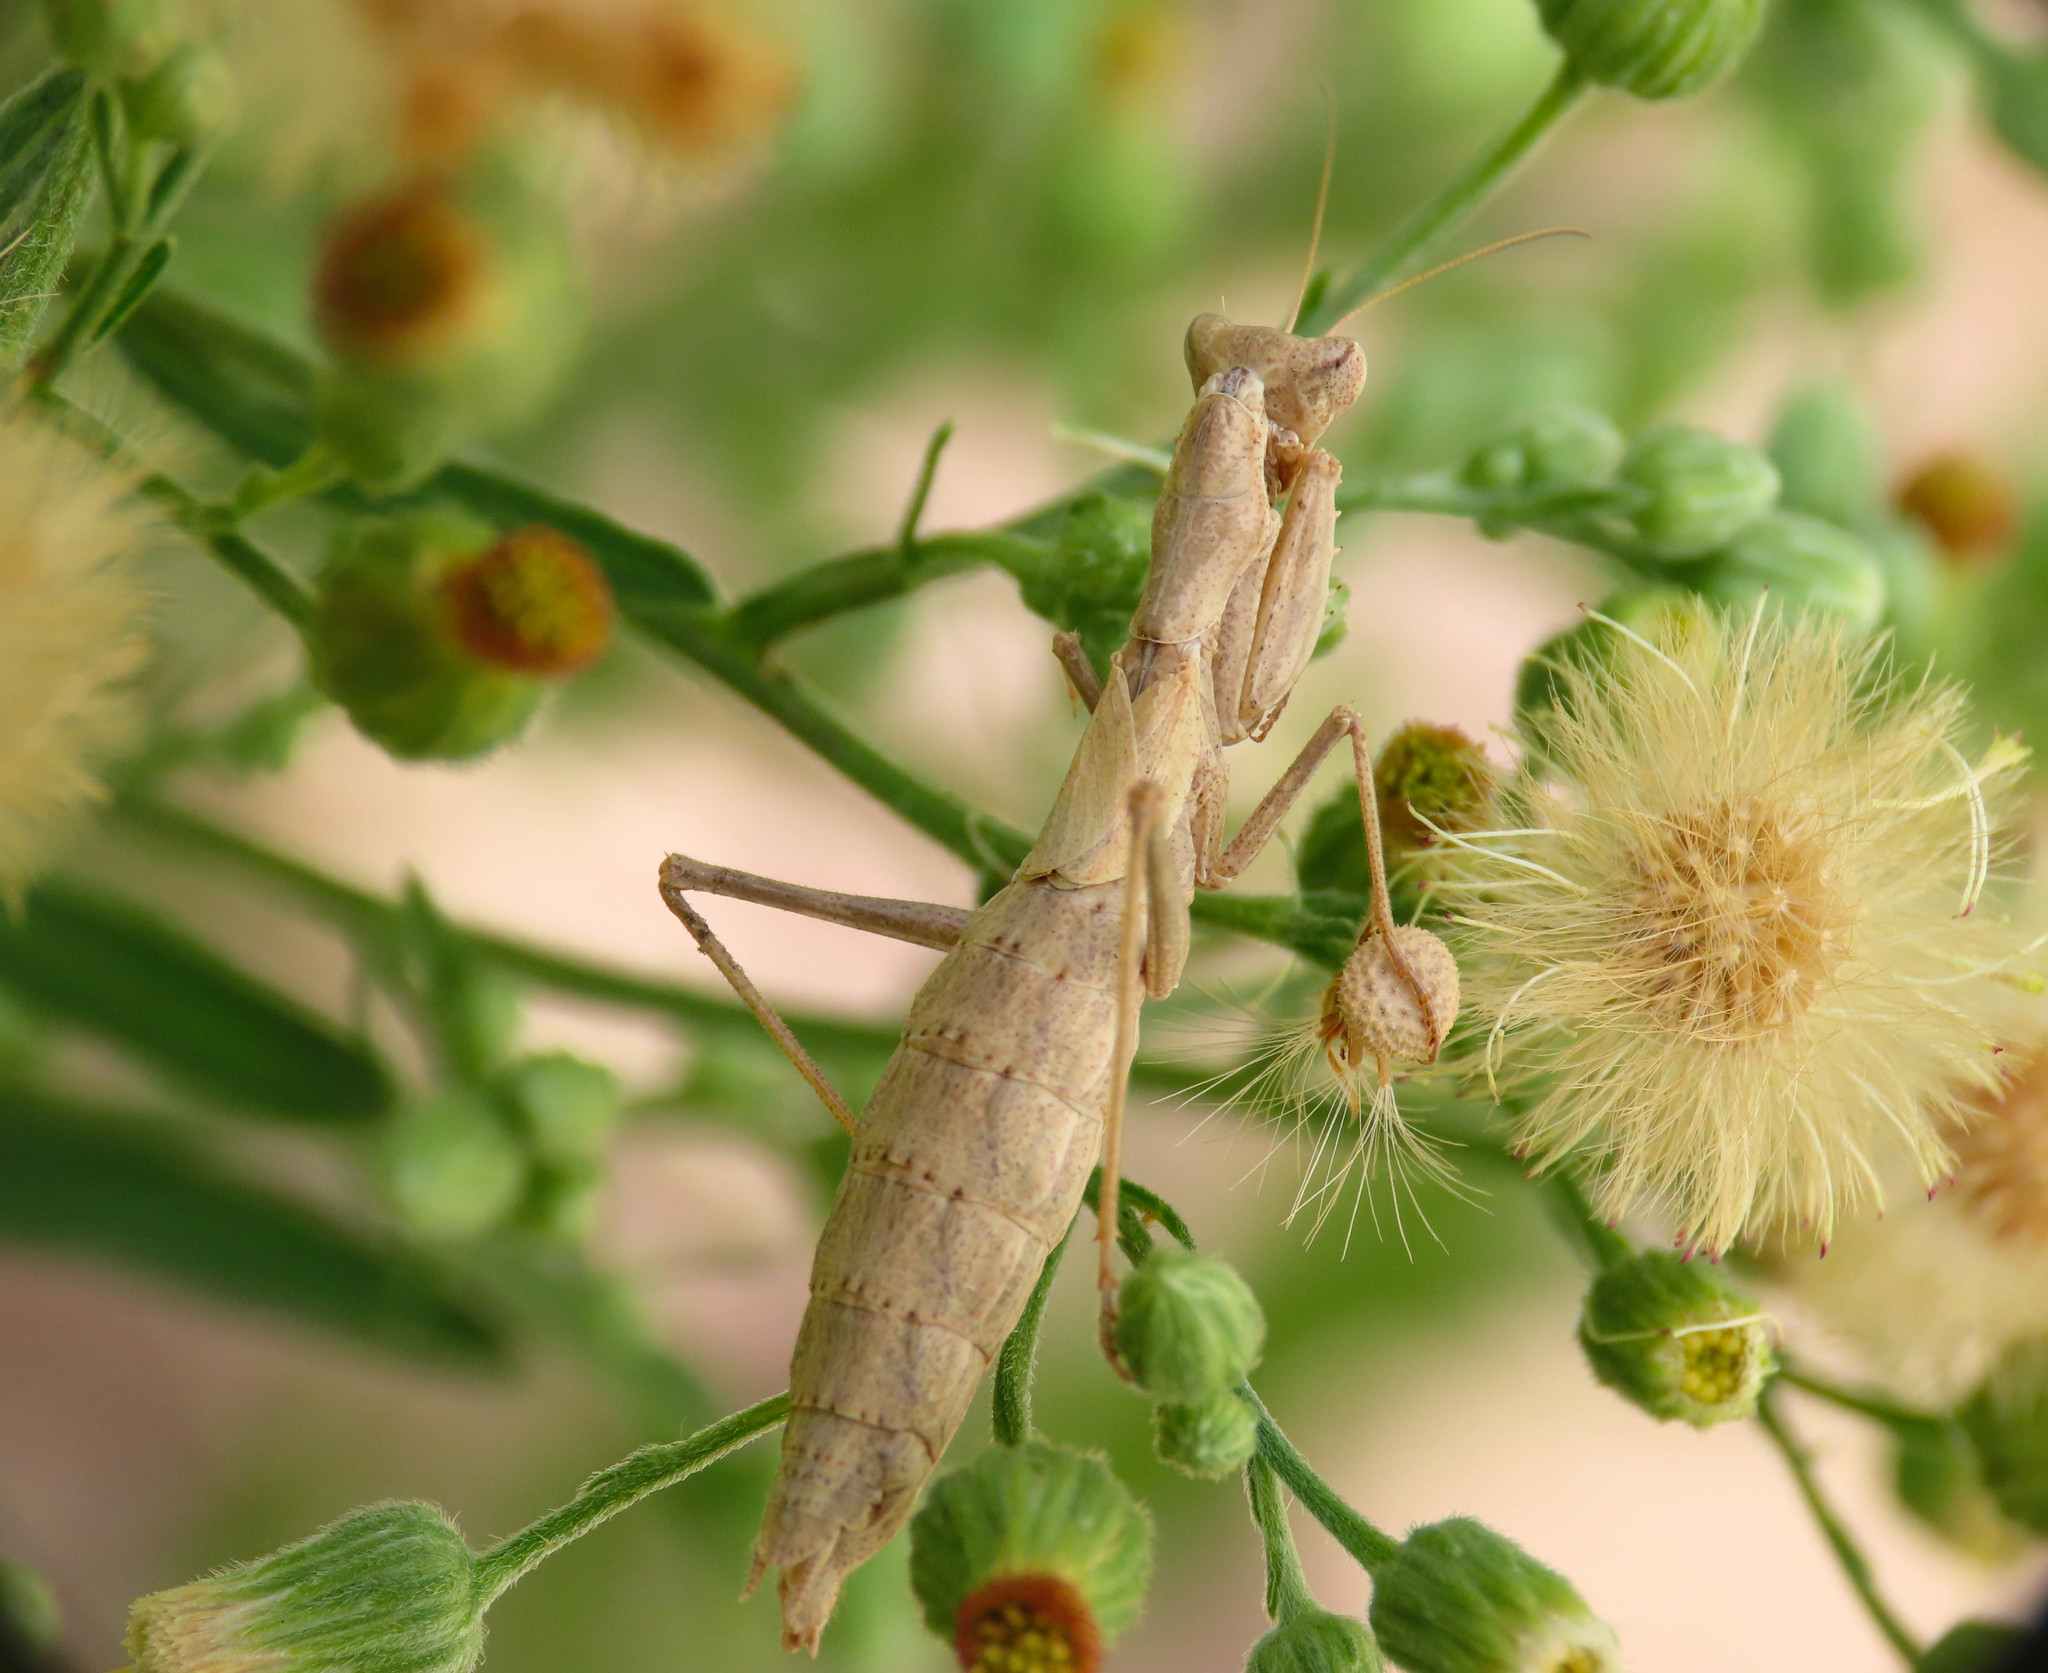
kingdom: Animalia
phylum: Arthropoda
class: Insecta
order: Mantodea
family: Amelidae
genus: Ameles
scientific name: Ameles decolor
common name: Dwarf mantis
